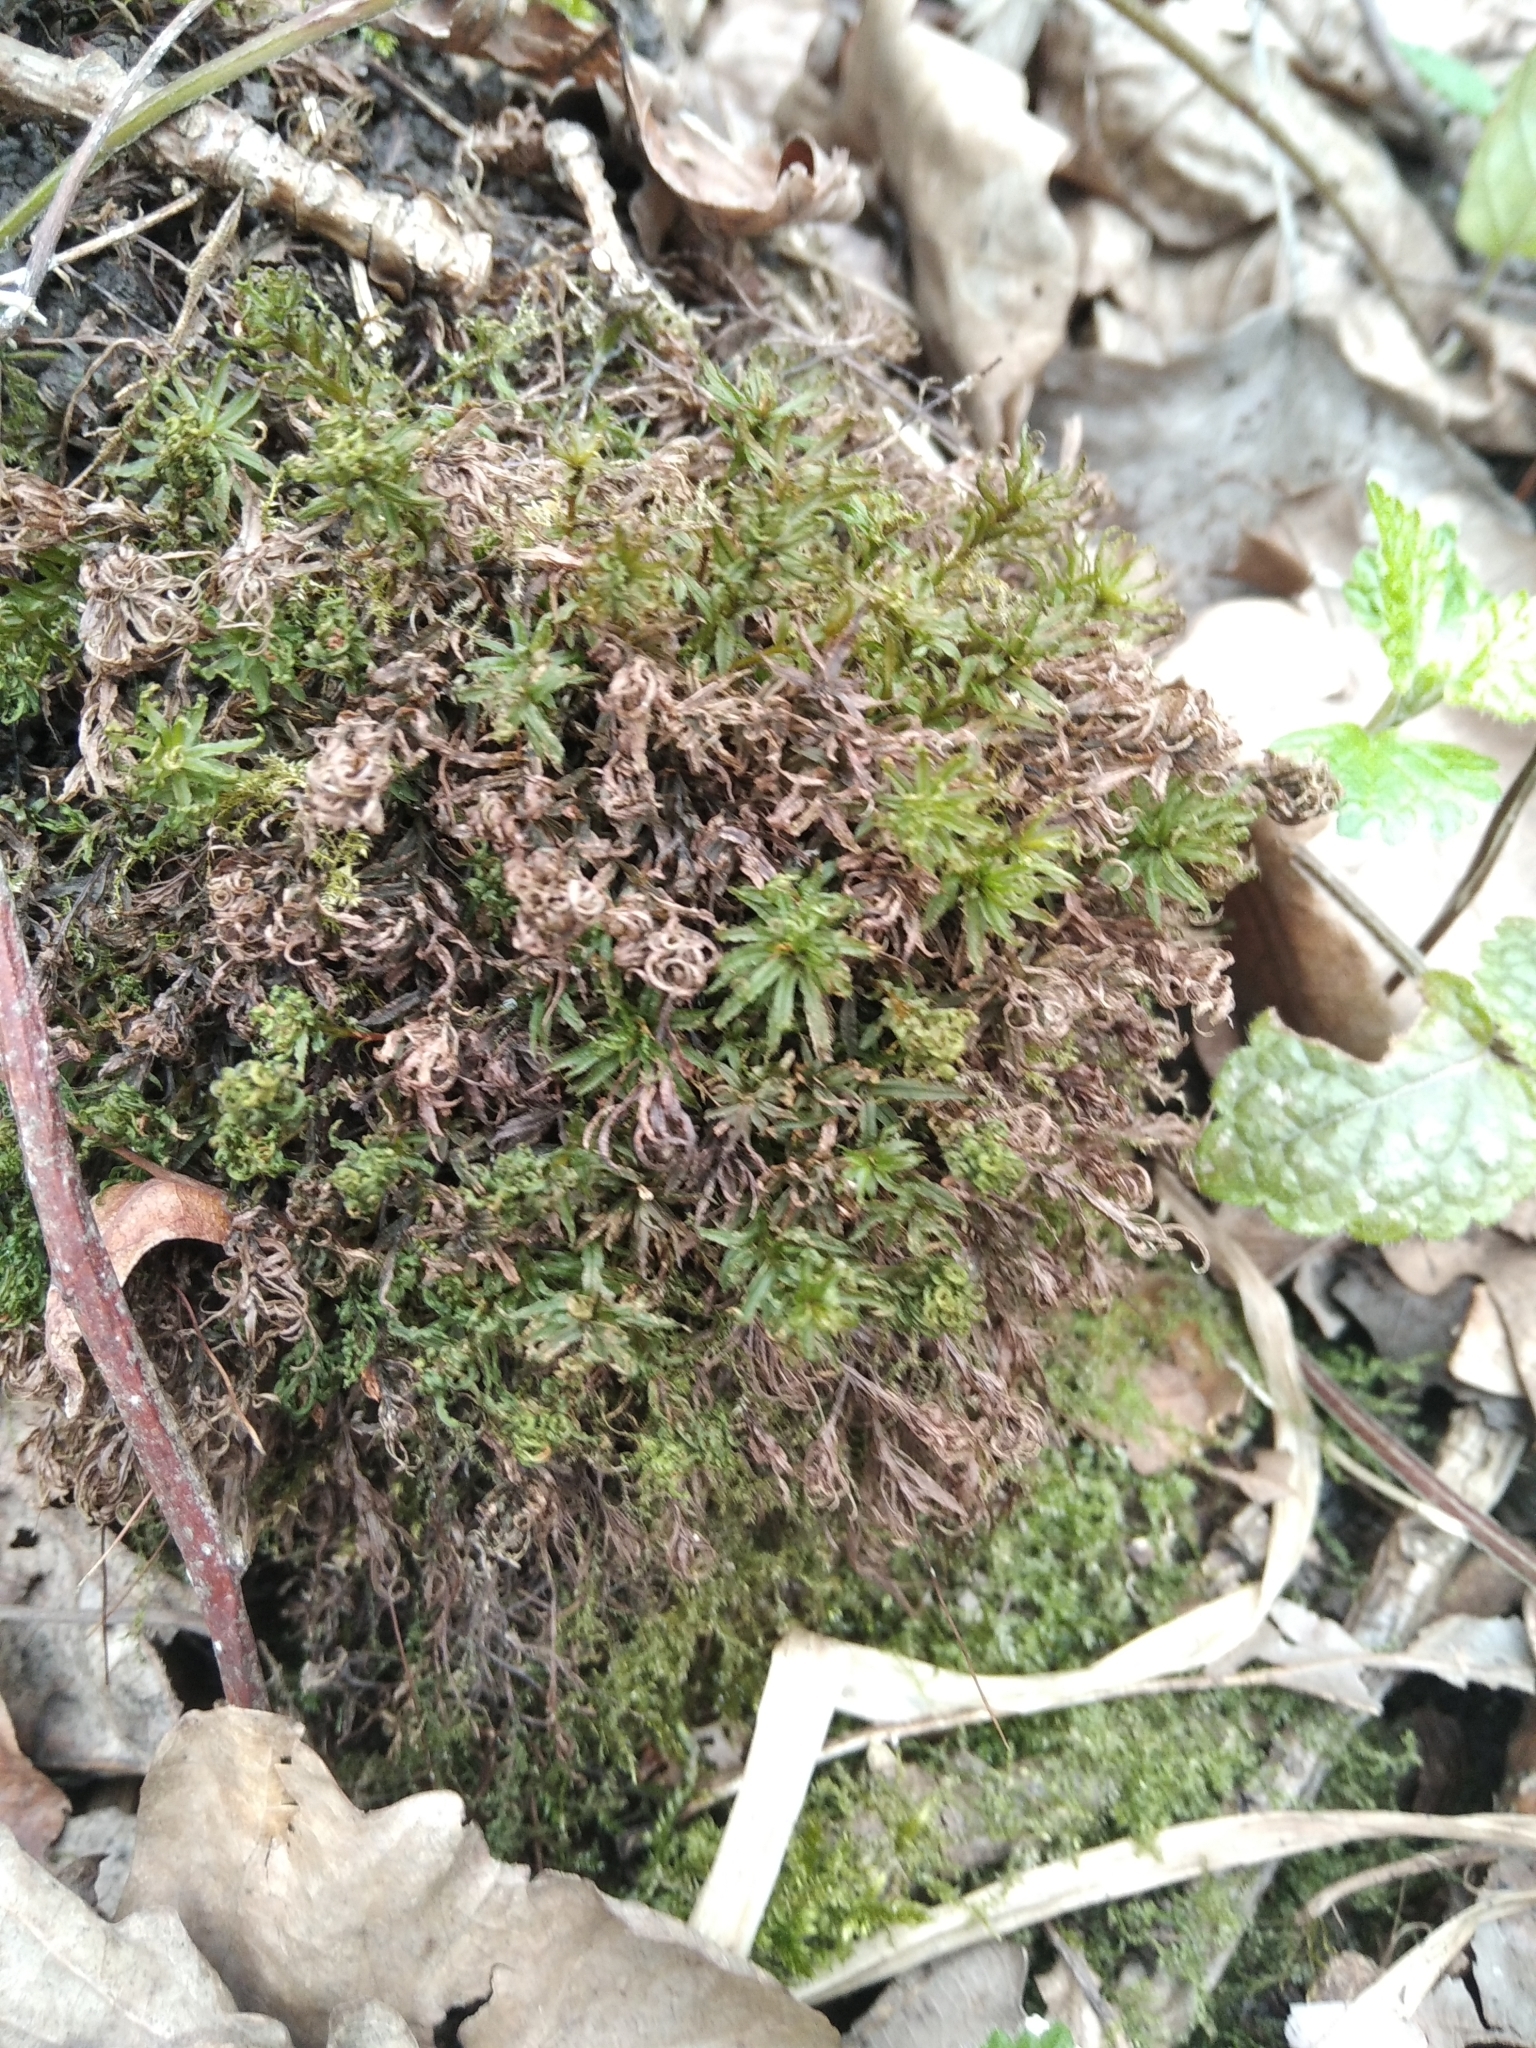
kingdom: Plantae
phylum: Bryophyta
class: Polytrichopsida
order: Polytrichales
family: Polytrichaceae
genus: Atrichum
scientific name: Atrichum undulatum
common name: Common smoothcap
